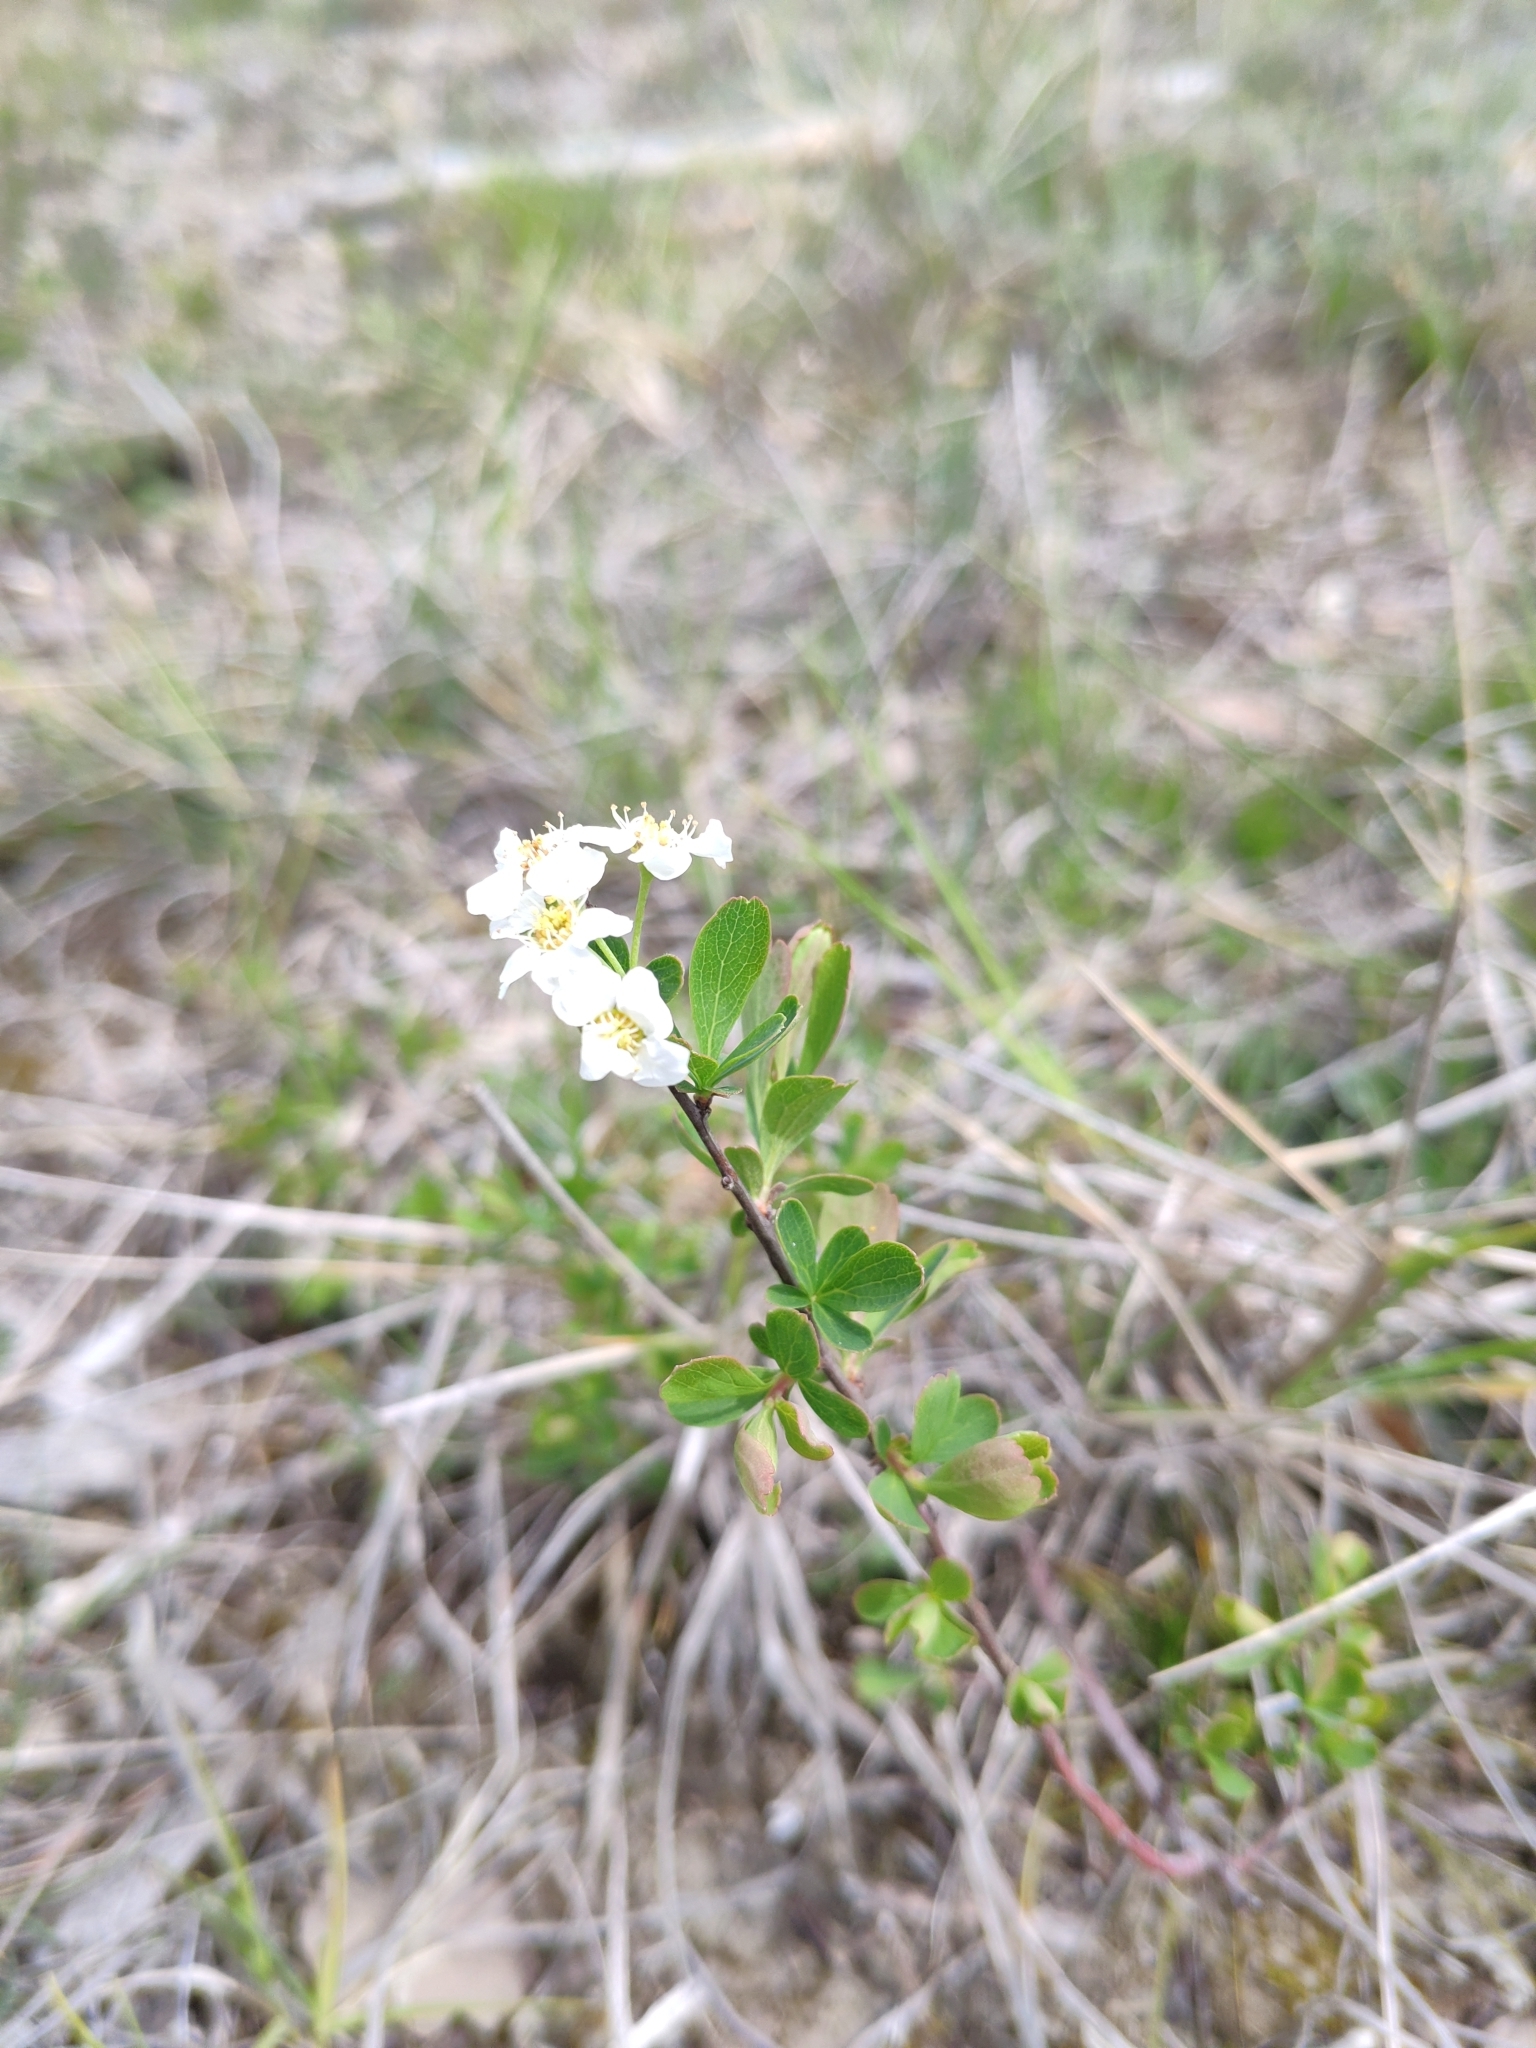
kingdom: Plantae
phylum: Tracheophyta
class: Magnoliopsida
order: Rosales
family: Rosaceae
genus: Spiraea
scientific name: Spiraea hypericifolia
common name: Iberian spirea
